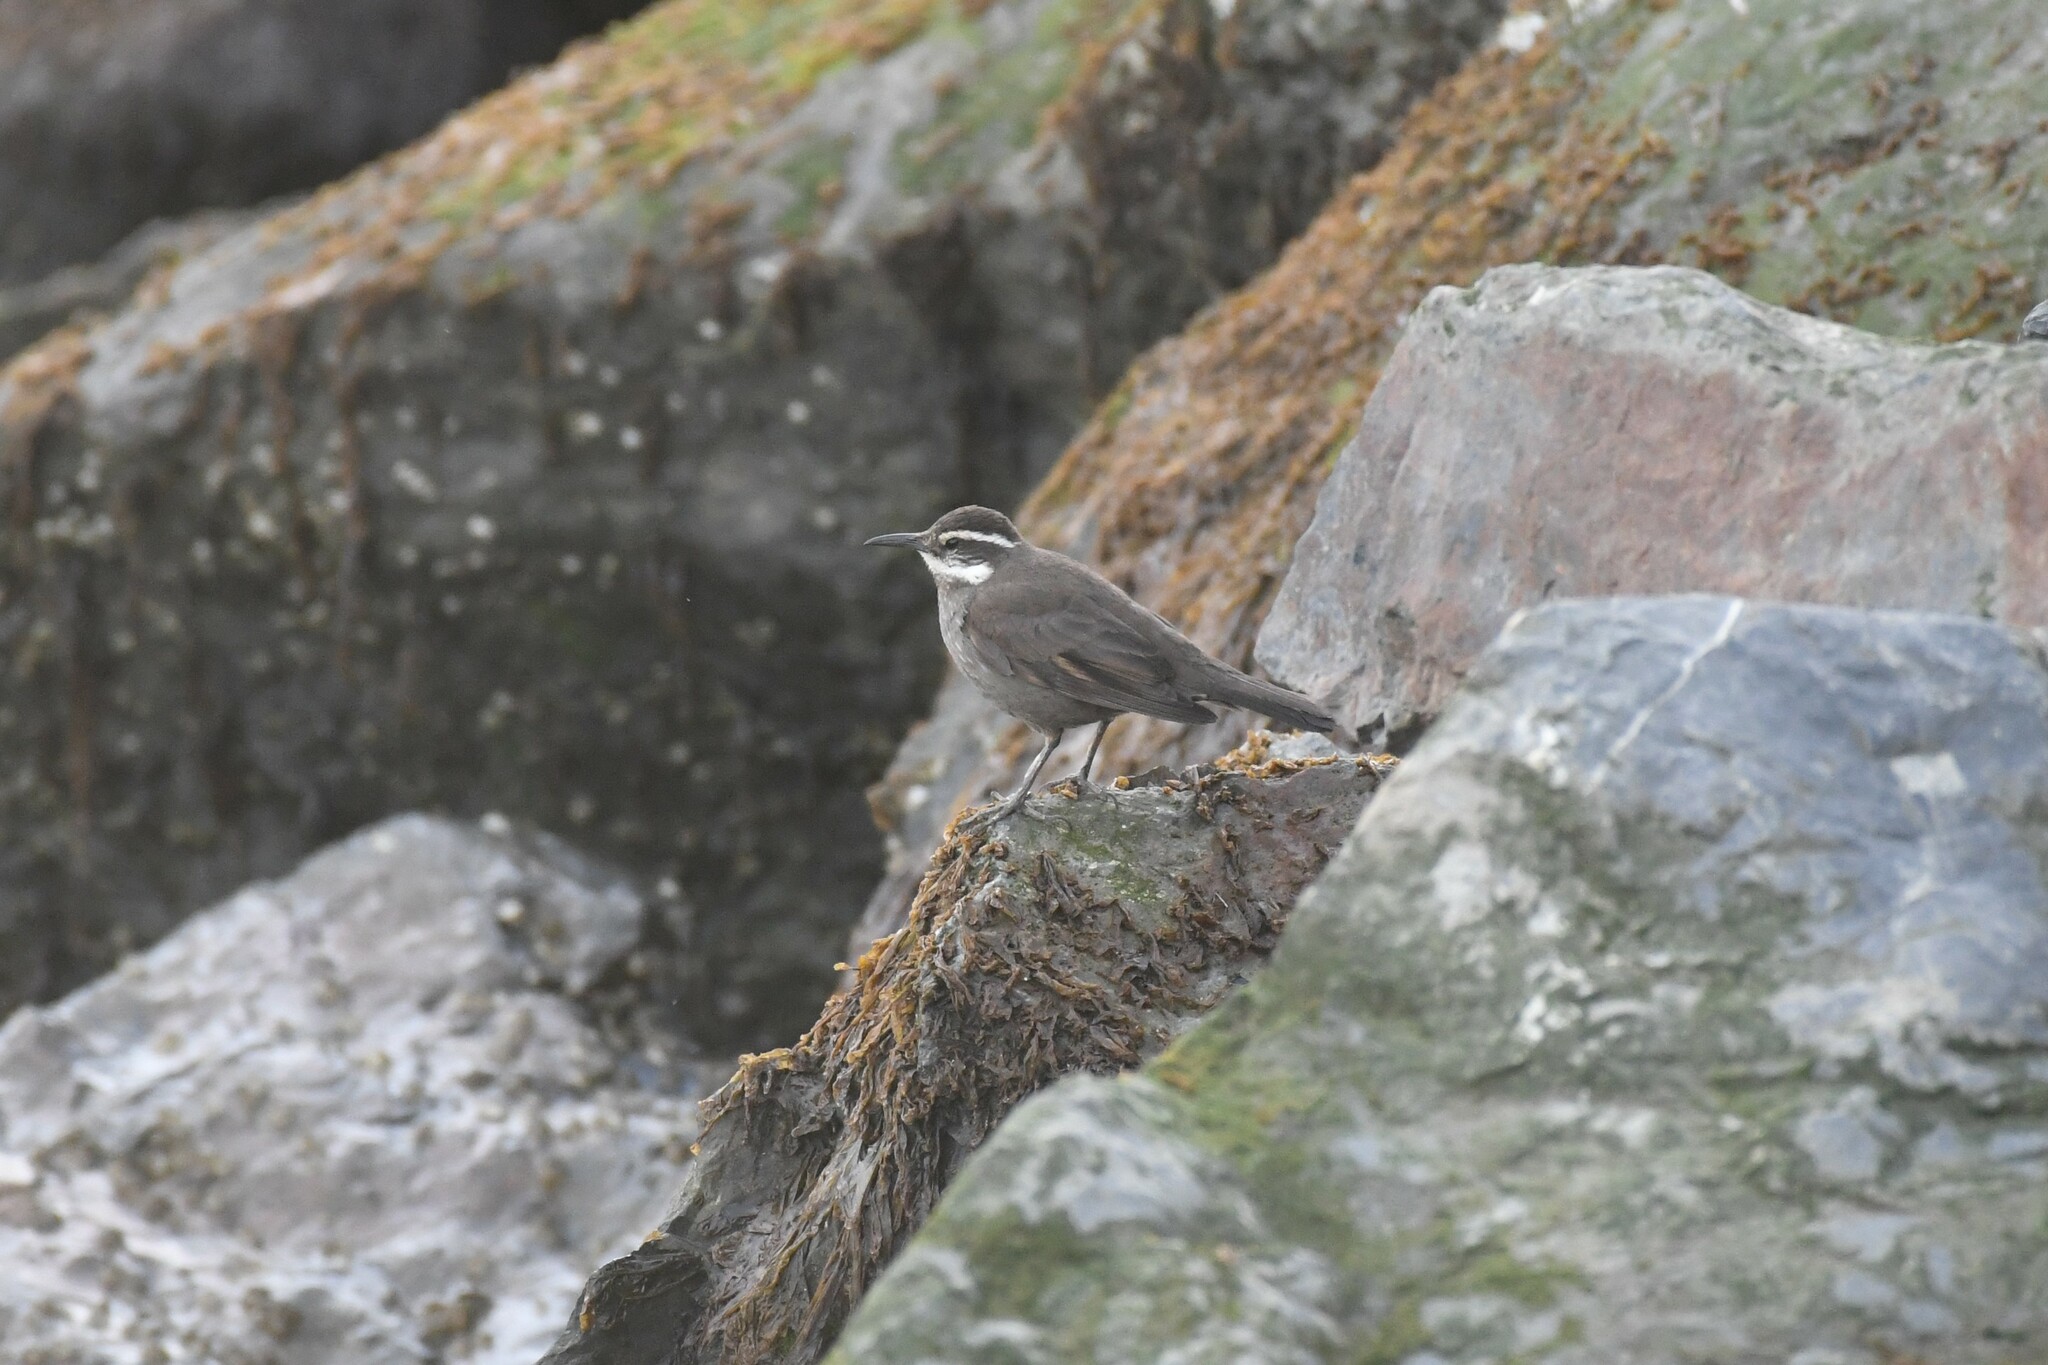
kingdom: Animalia
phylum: Chordata
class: Aves
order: Passeriformes
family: Furnariidae
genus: Cinclodes
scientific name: Cinclodes patagonicus
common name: Dark-bellied cinclodes
